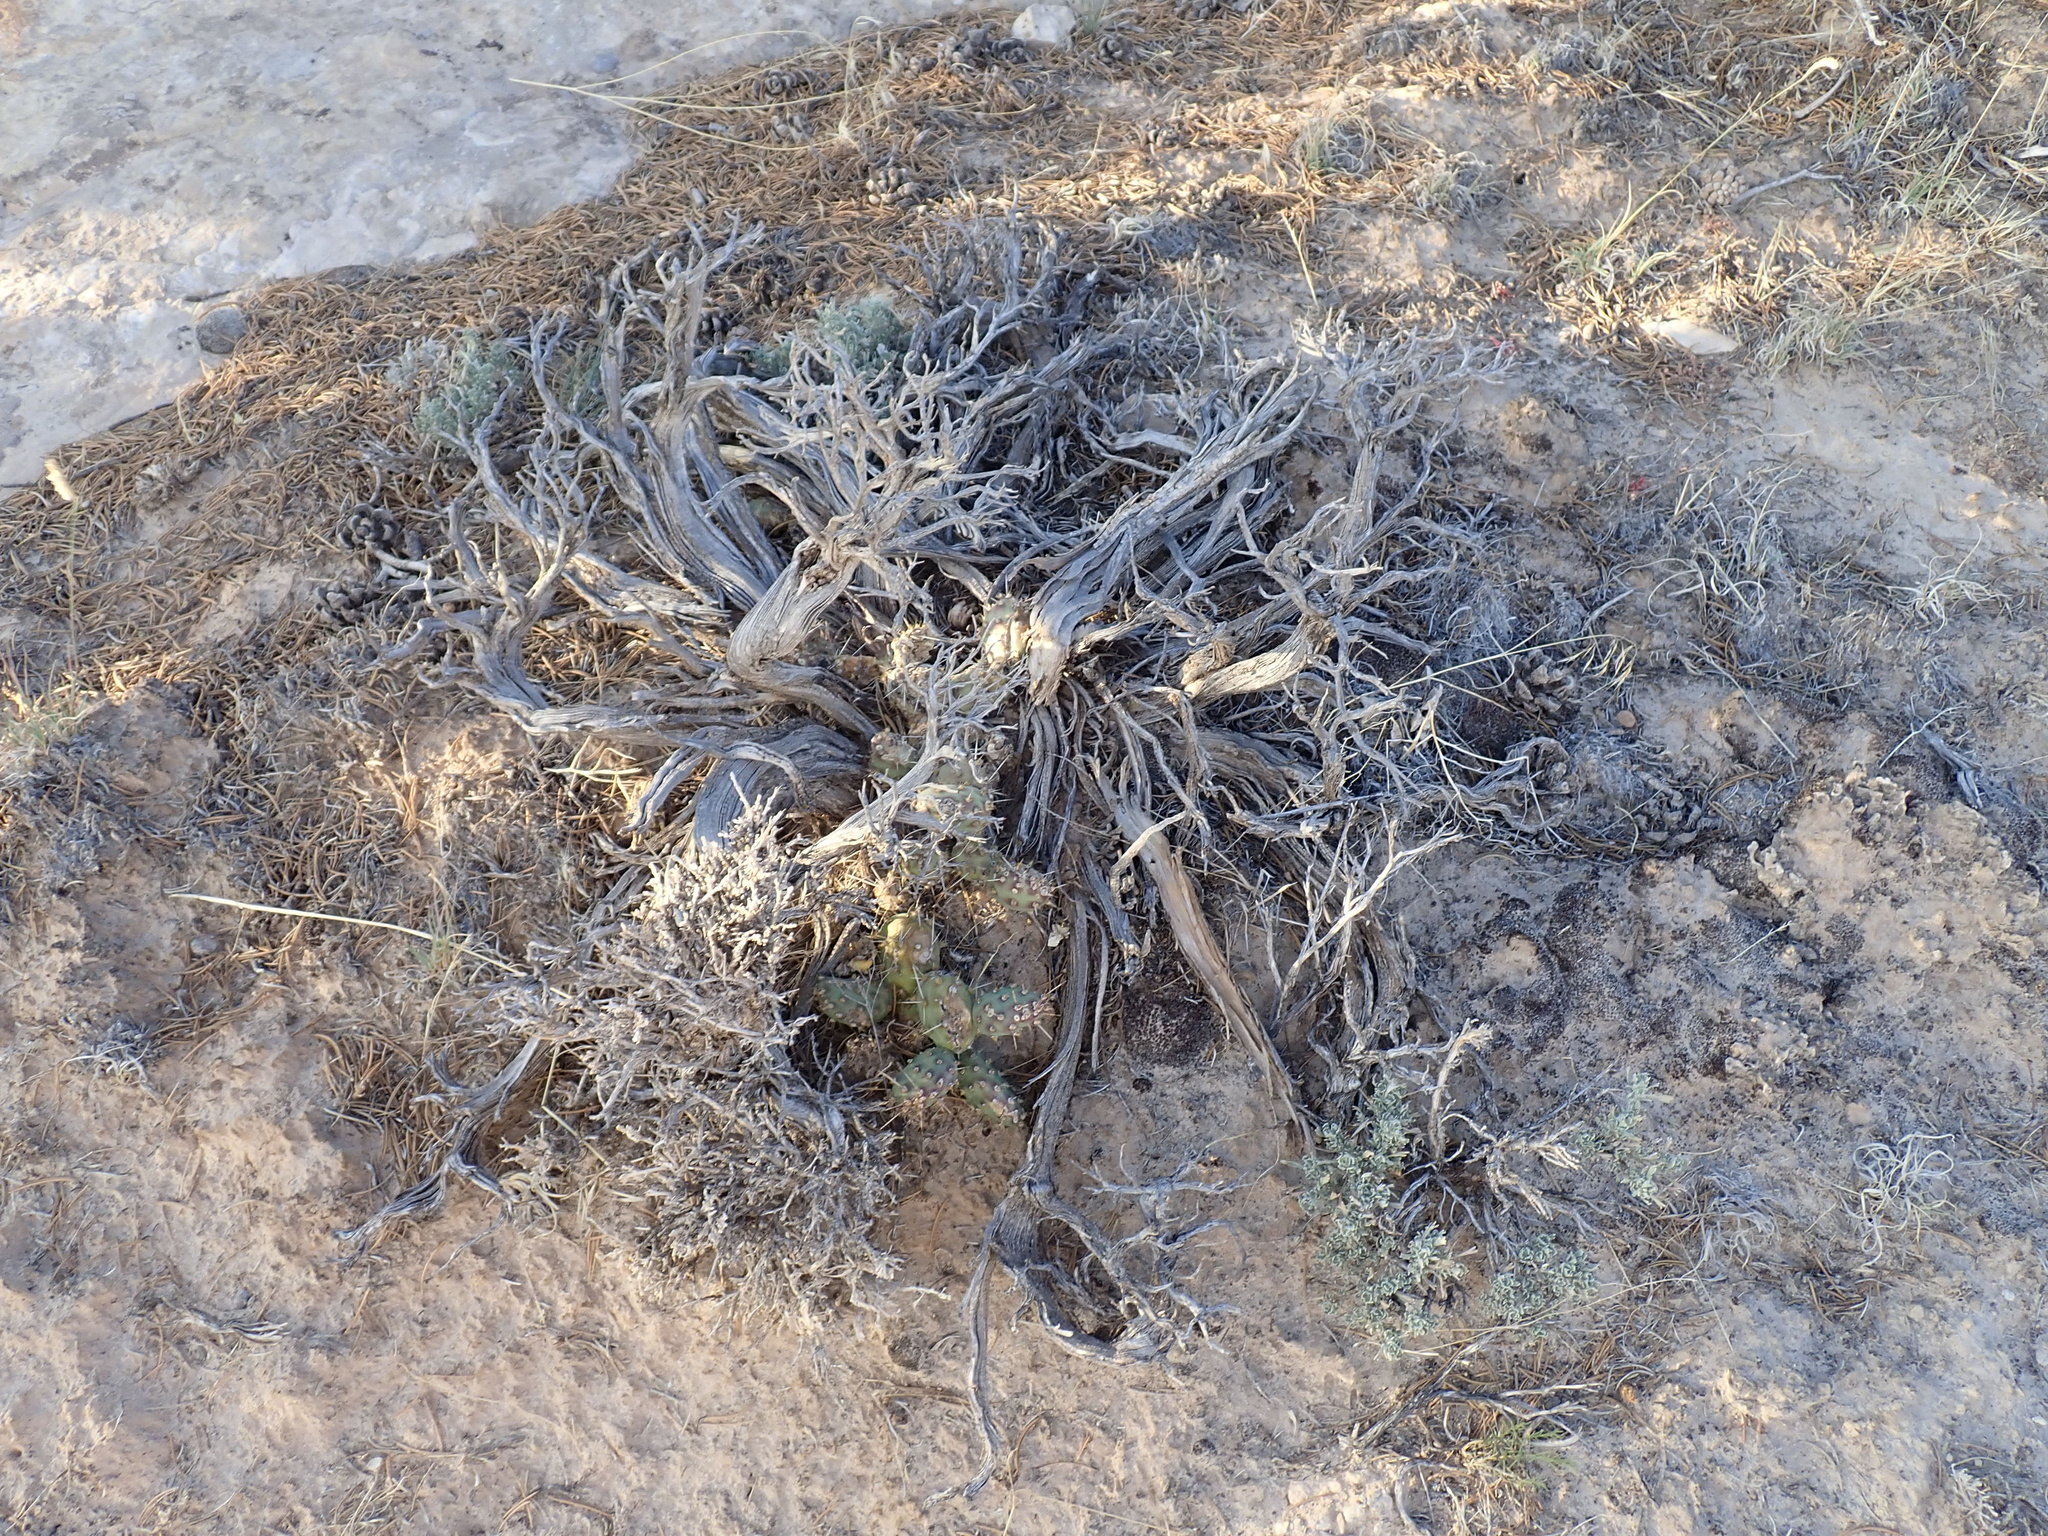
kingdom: Plantae
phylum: Tracheophyta
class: Magnoliopsida
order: Caryophyllales
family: Cactaceae
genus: Opuntia
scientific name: Opuntia fragilis
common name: Brittle cactus
